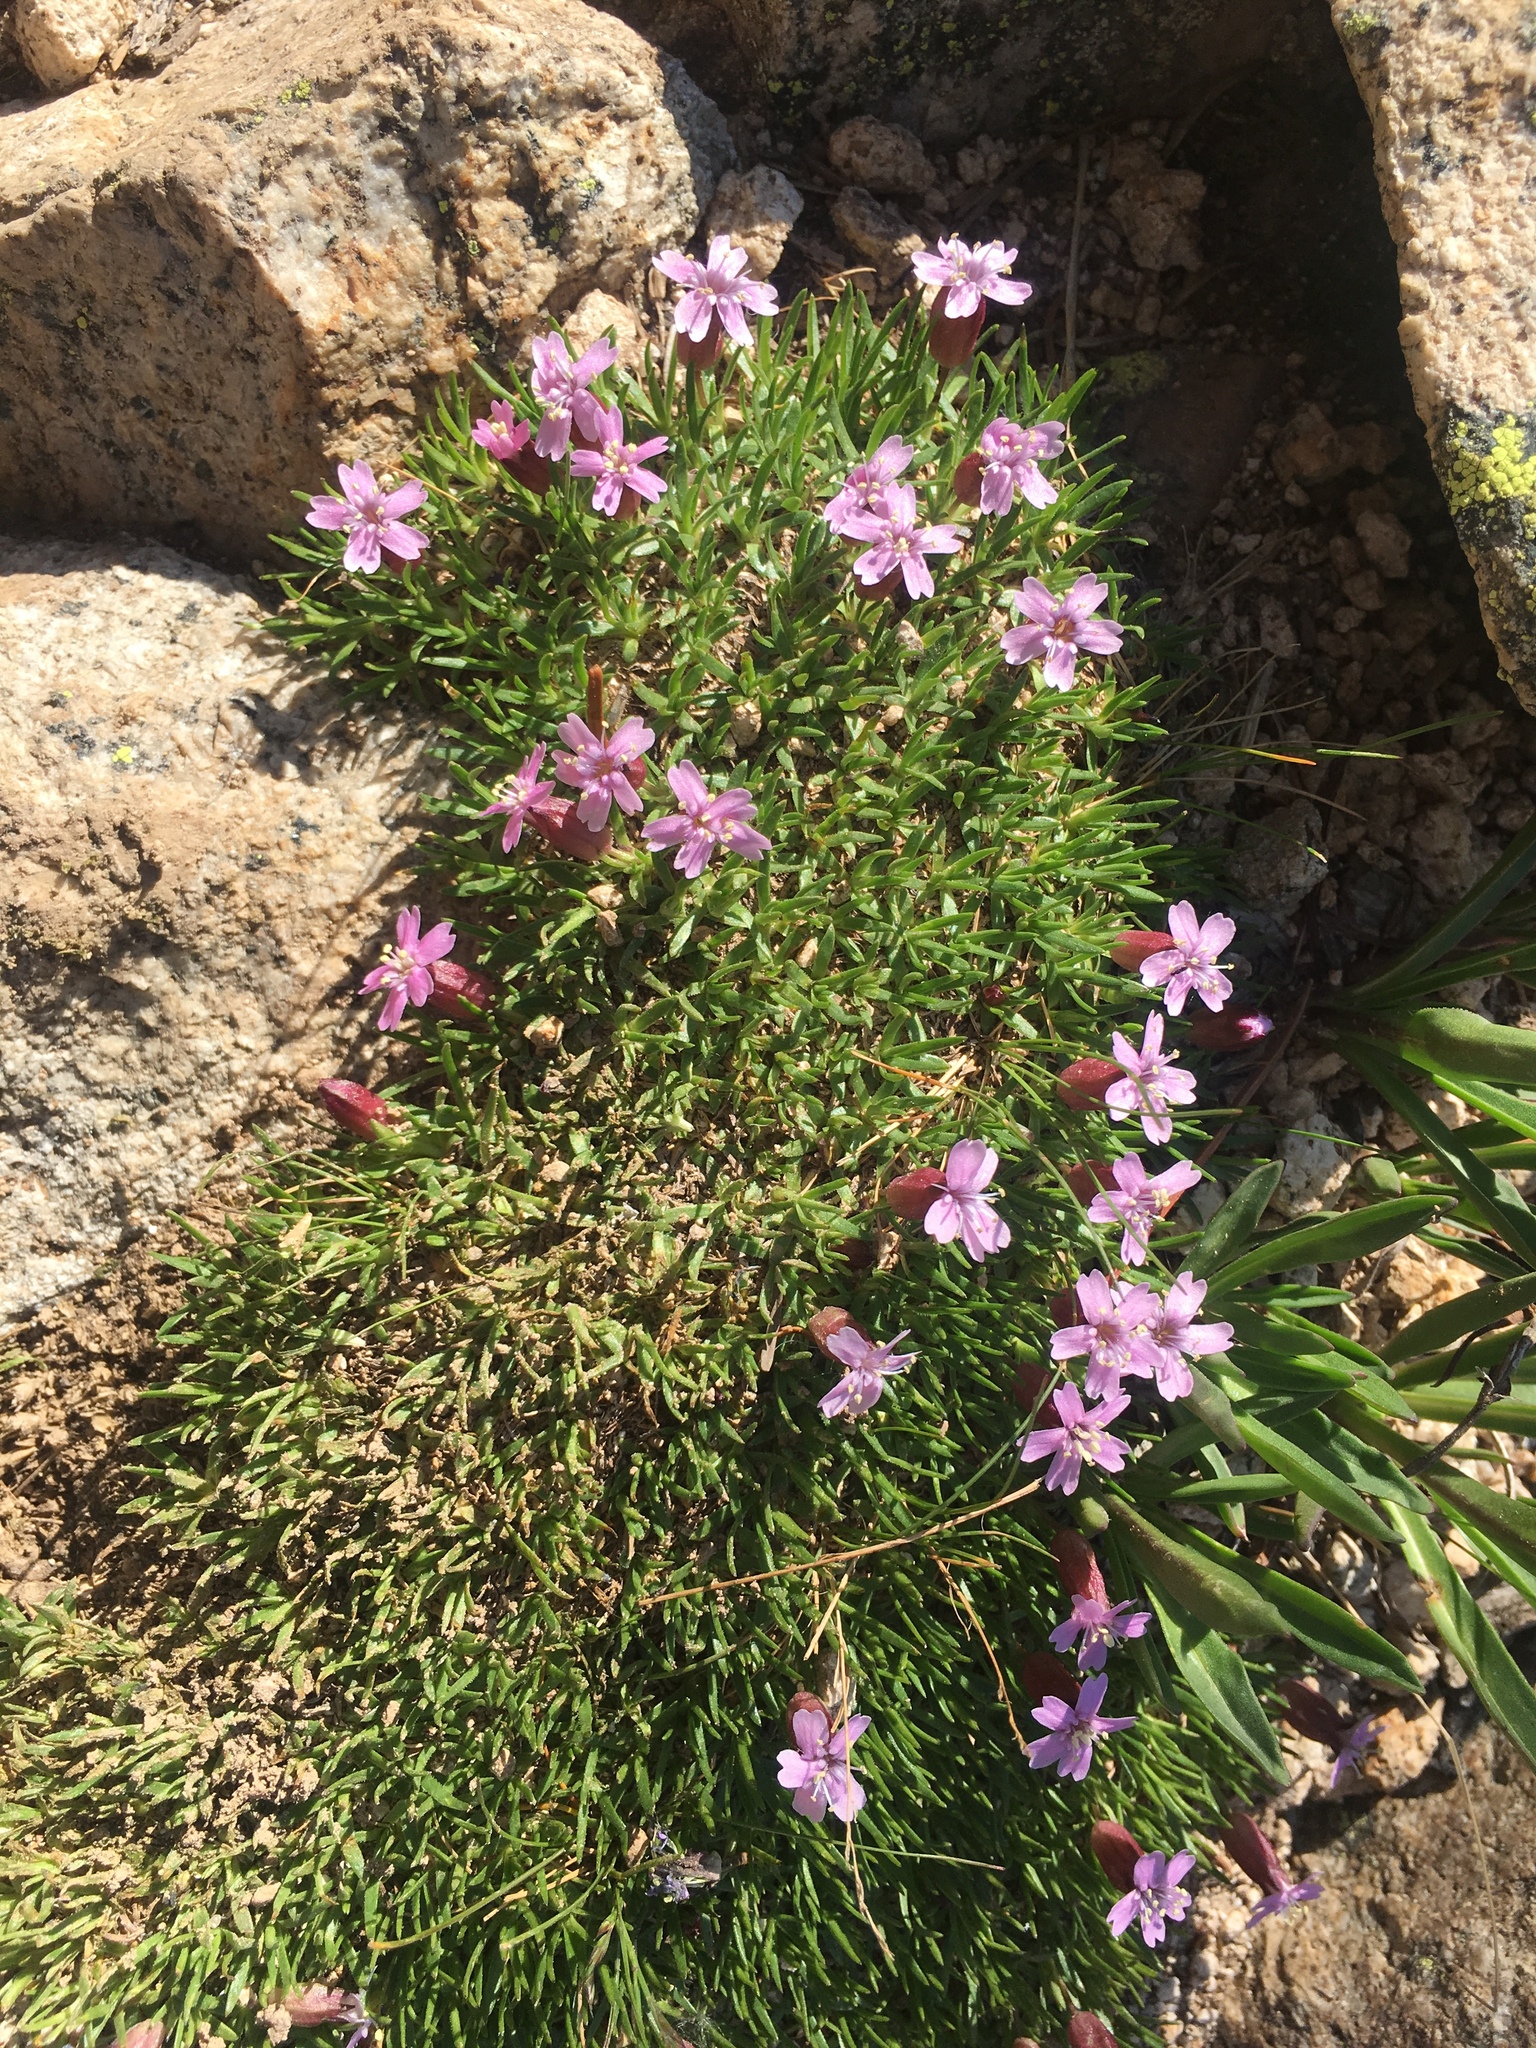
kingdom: Plantae
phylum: Tracheophyta
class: Magnoliopsida
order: Caryophyllales
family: Caryophyllaceae
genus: Silene
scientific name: Silene acaulis
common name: Moss campion
